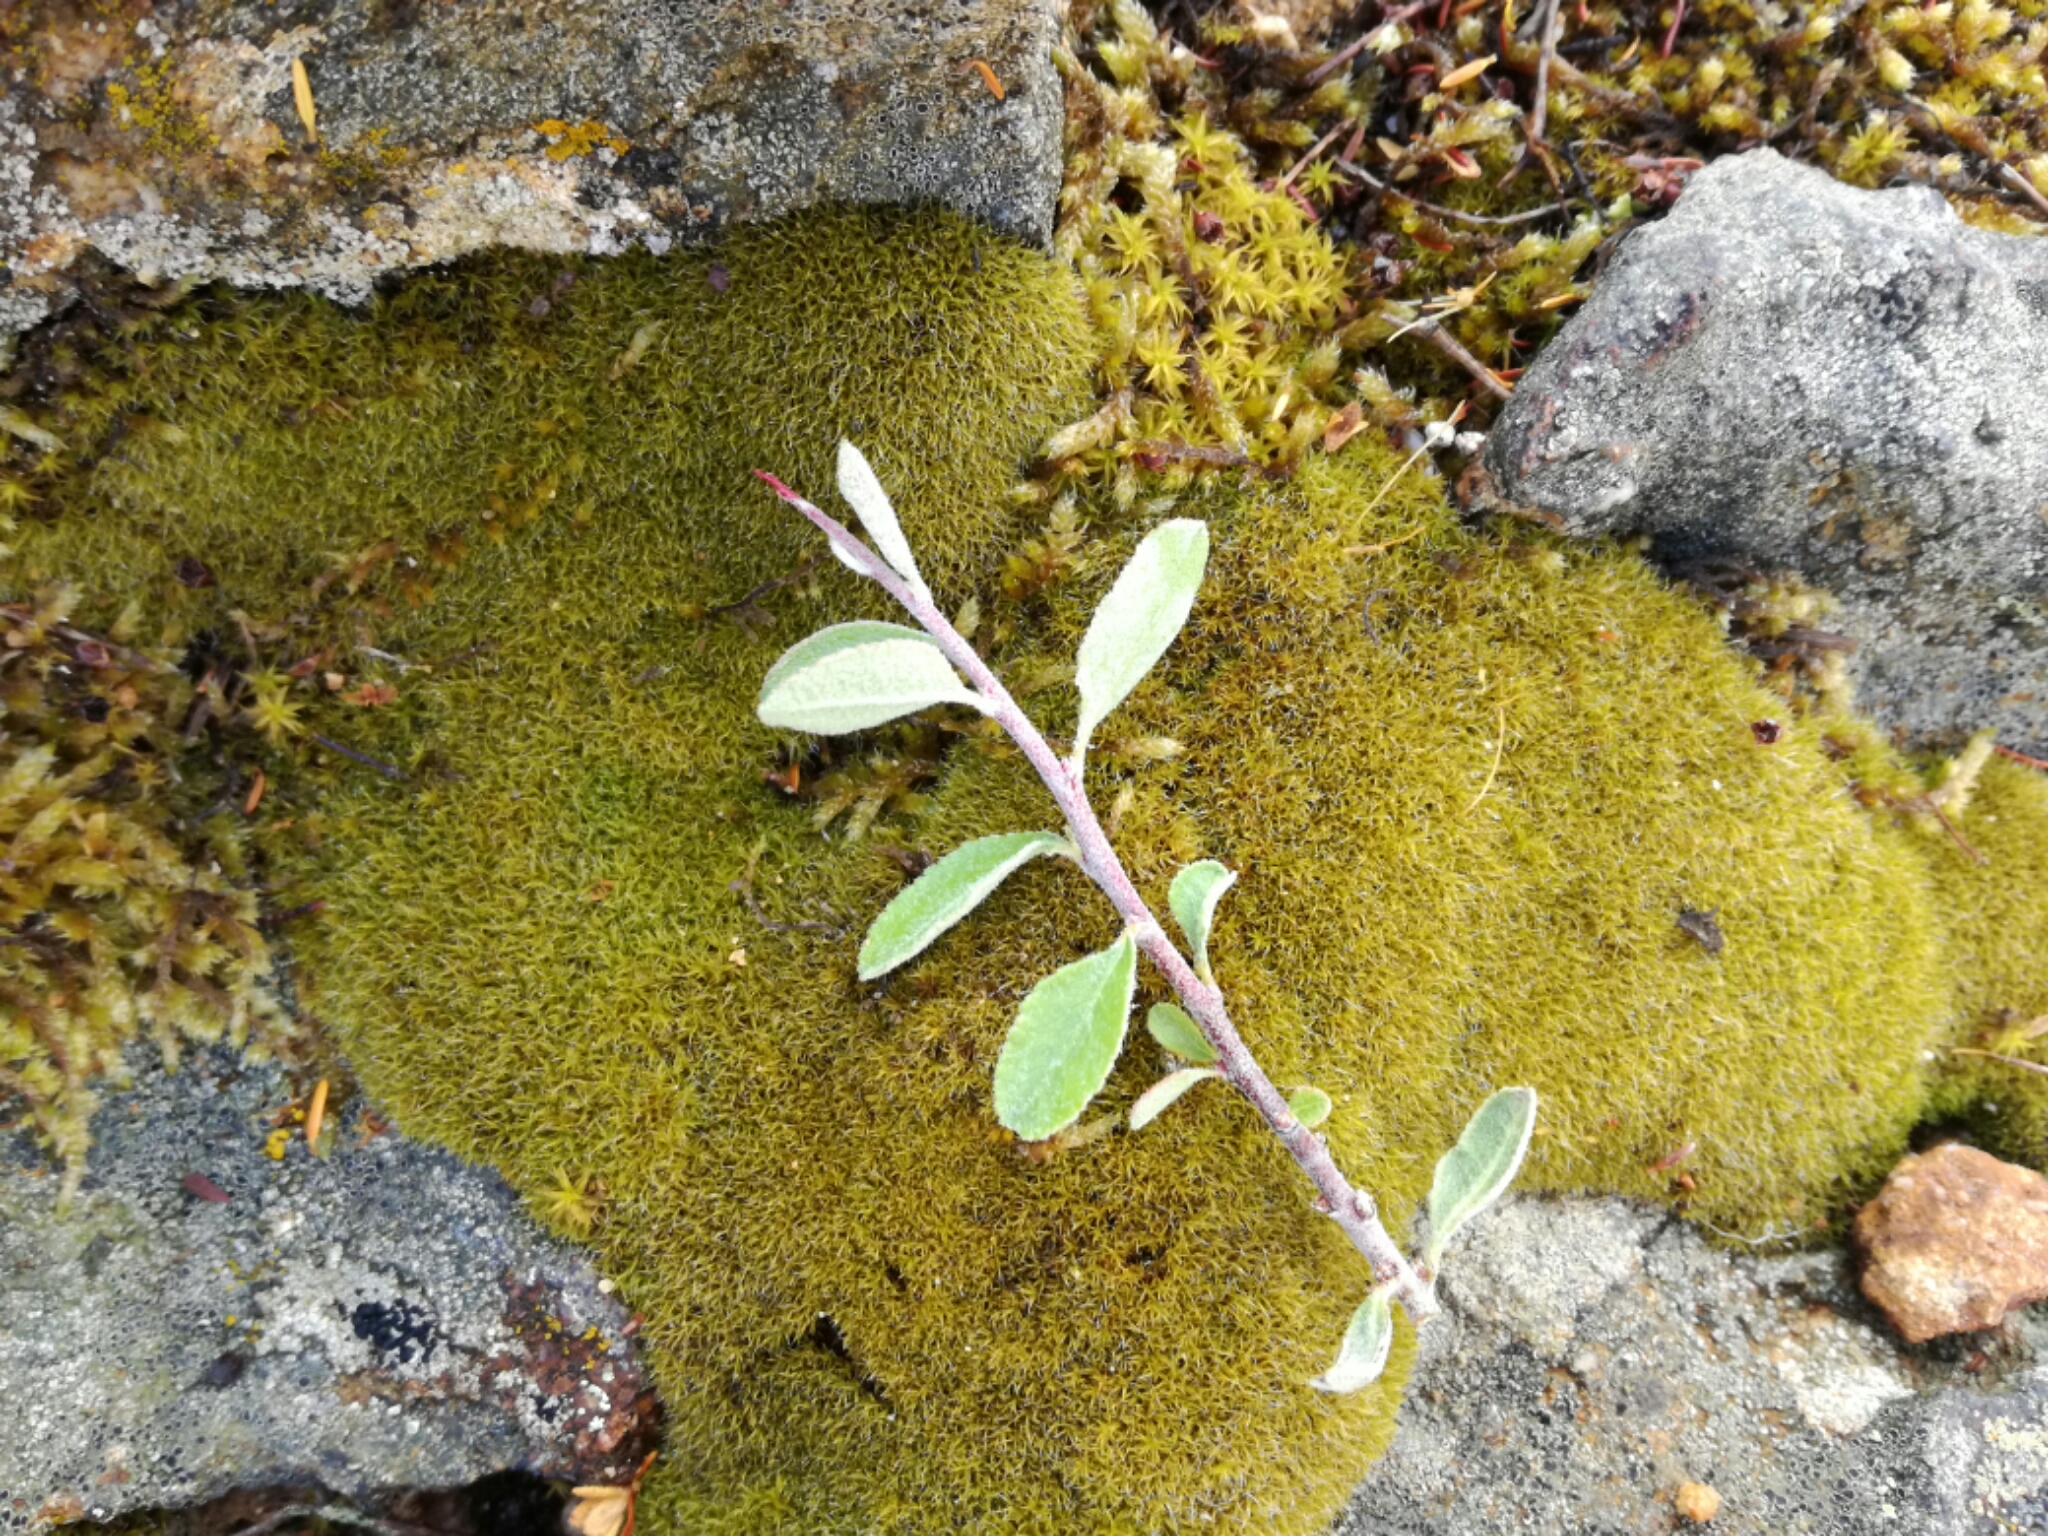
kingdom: Plantae
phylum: Tracheophyta
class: Magnoliopsida
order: Rosales
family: Rosaceae
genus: Prunus
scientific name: Prunus spinosa
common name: Blackthorn
